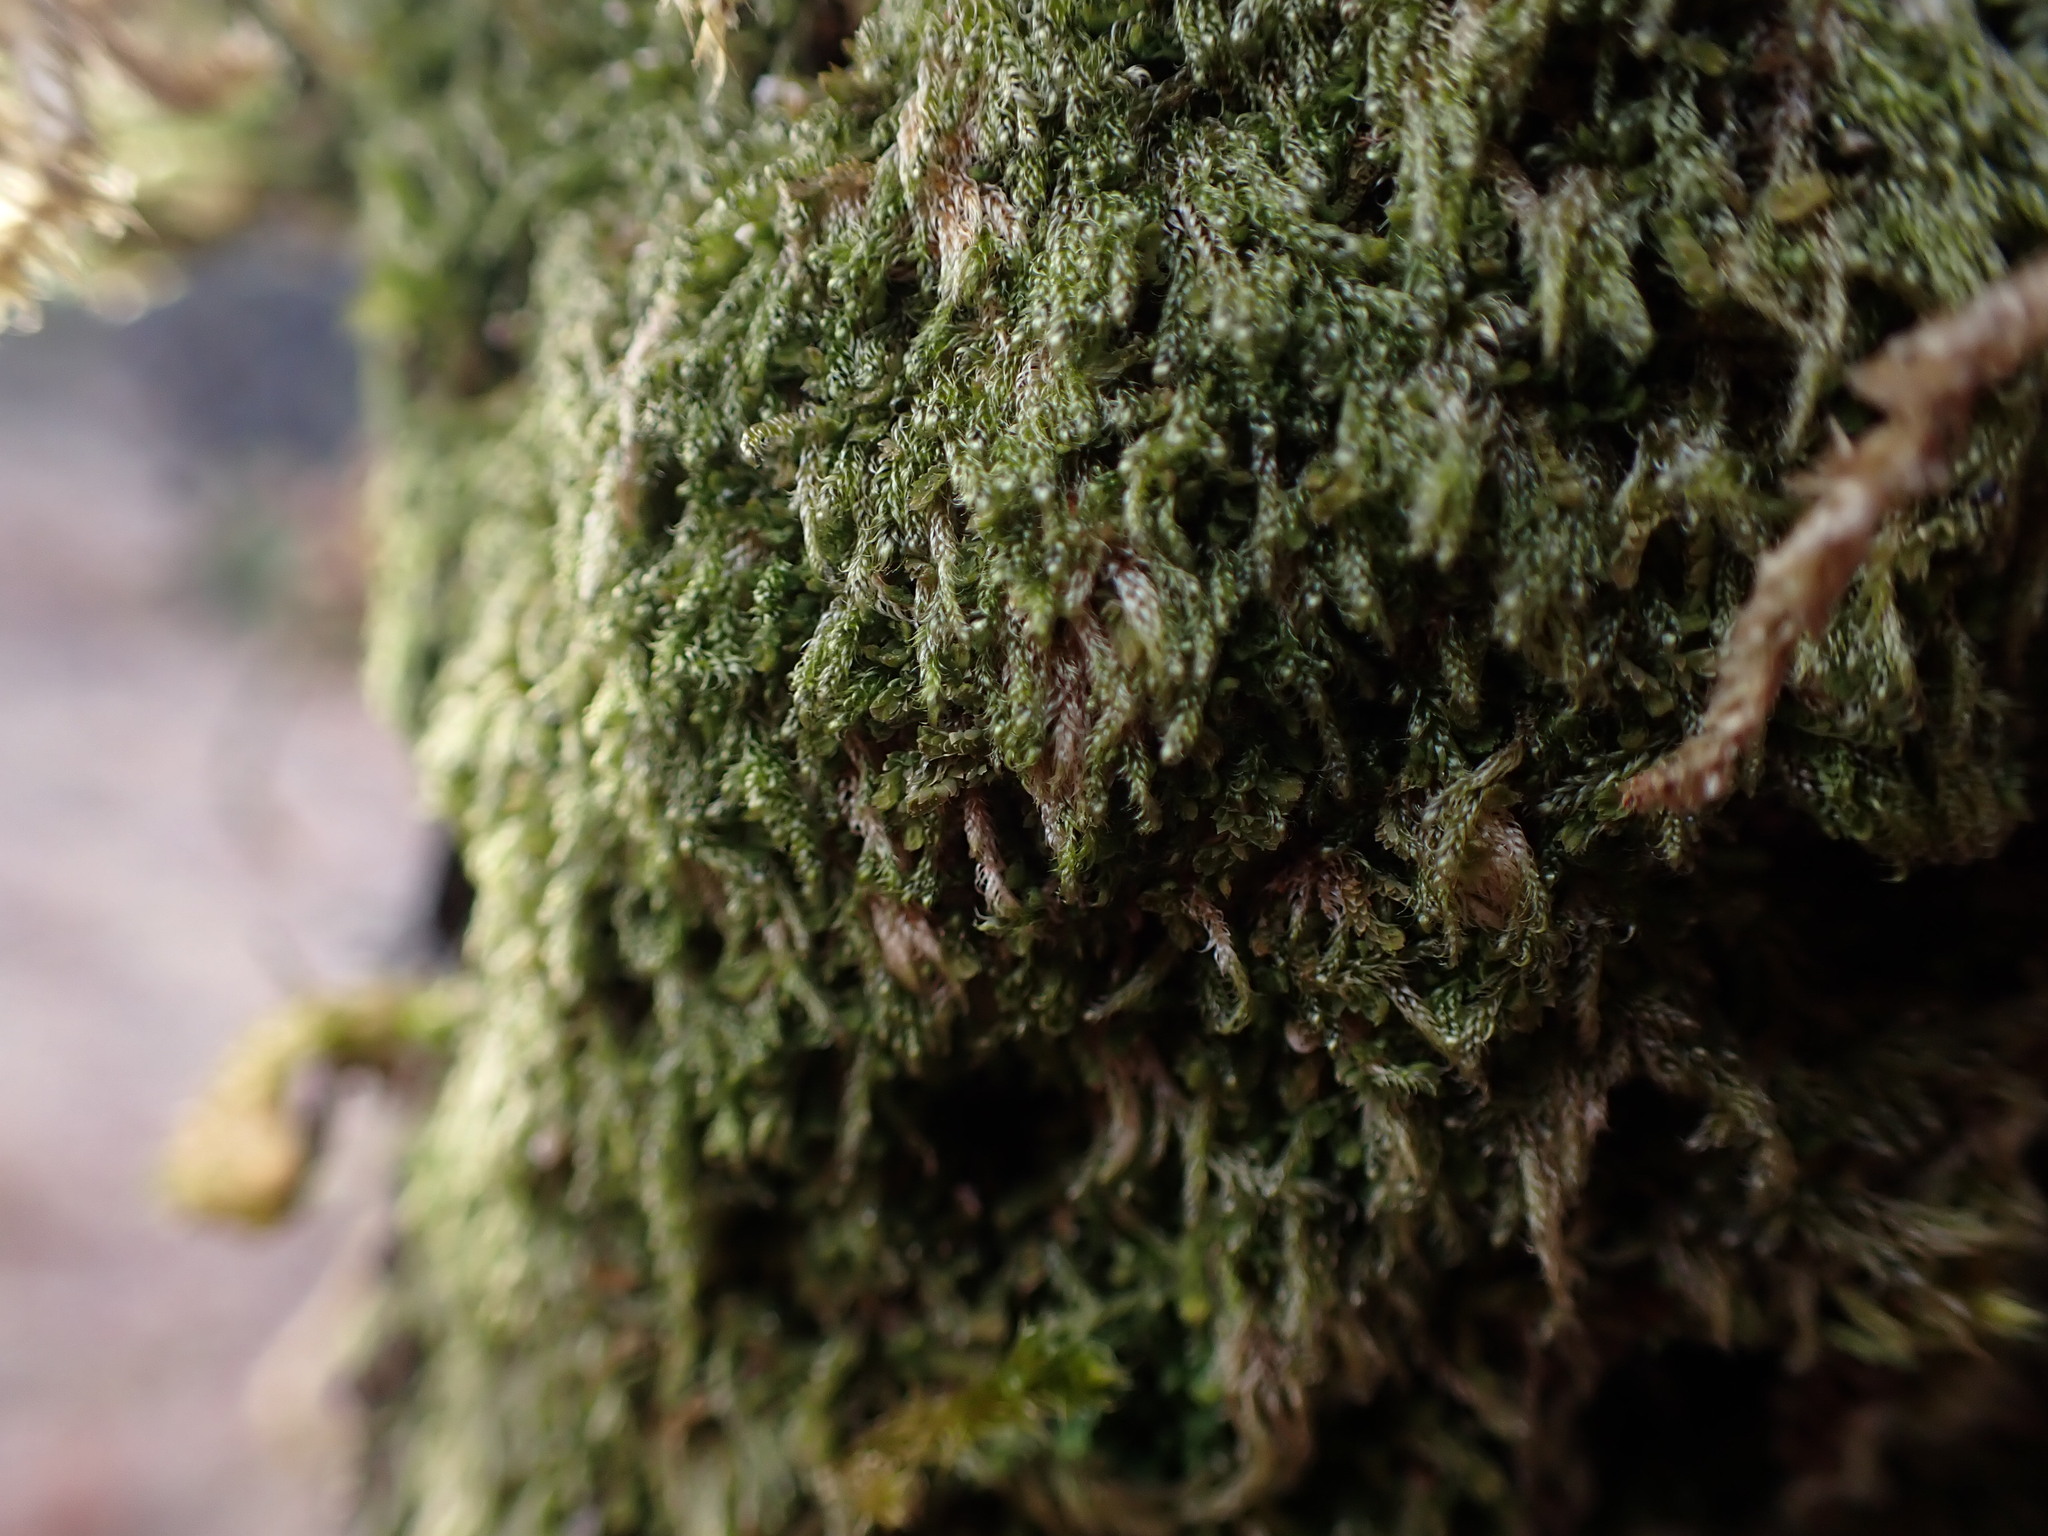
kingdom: Plantae
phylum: Bryophyta
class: Bryopsida
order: Hypnales
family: Pylaisiadelphaceae
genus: Trochophyllohypnum
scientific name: Trochophyllohypnum circinale
